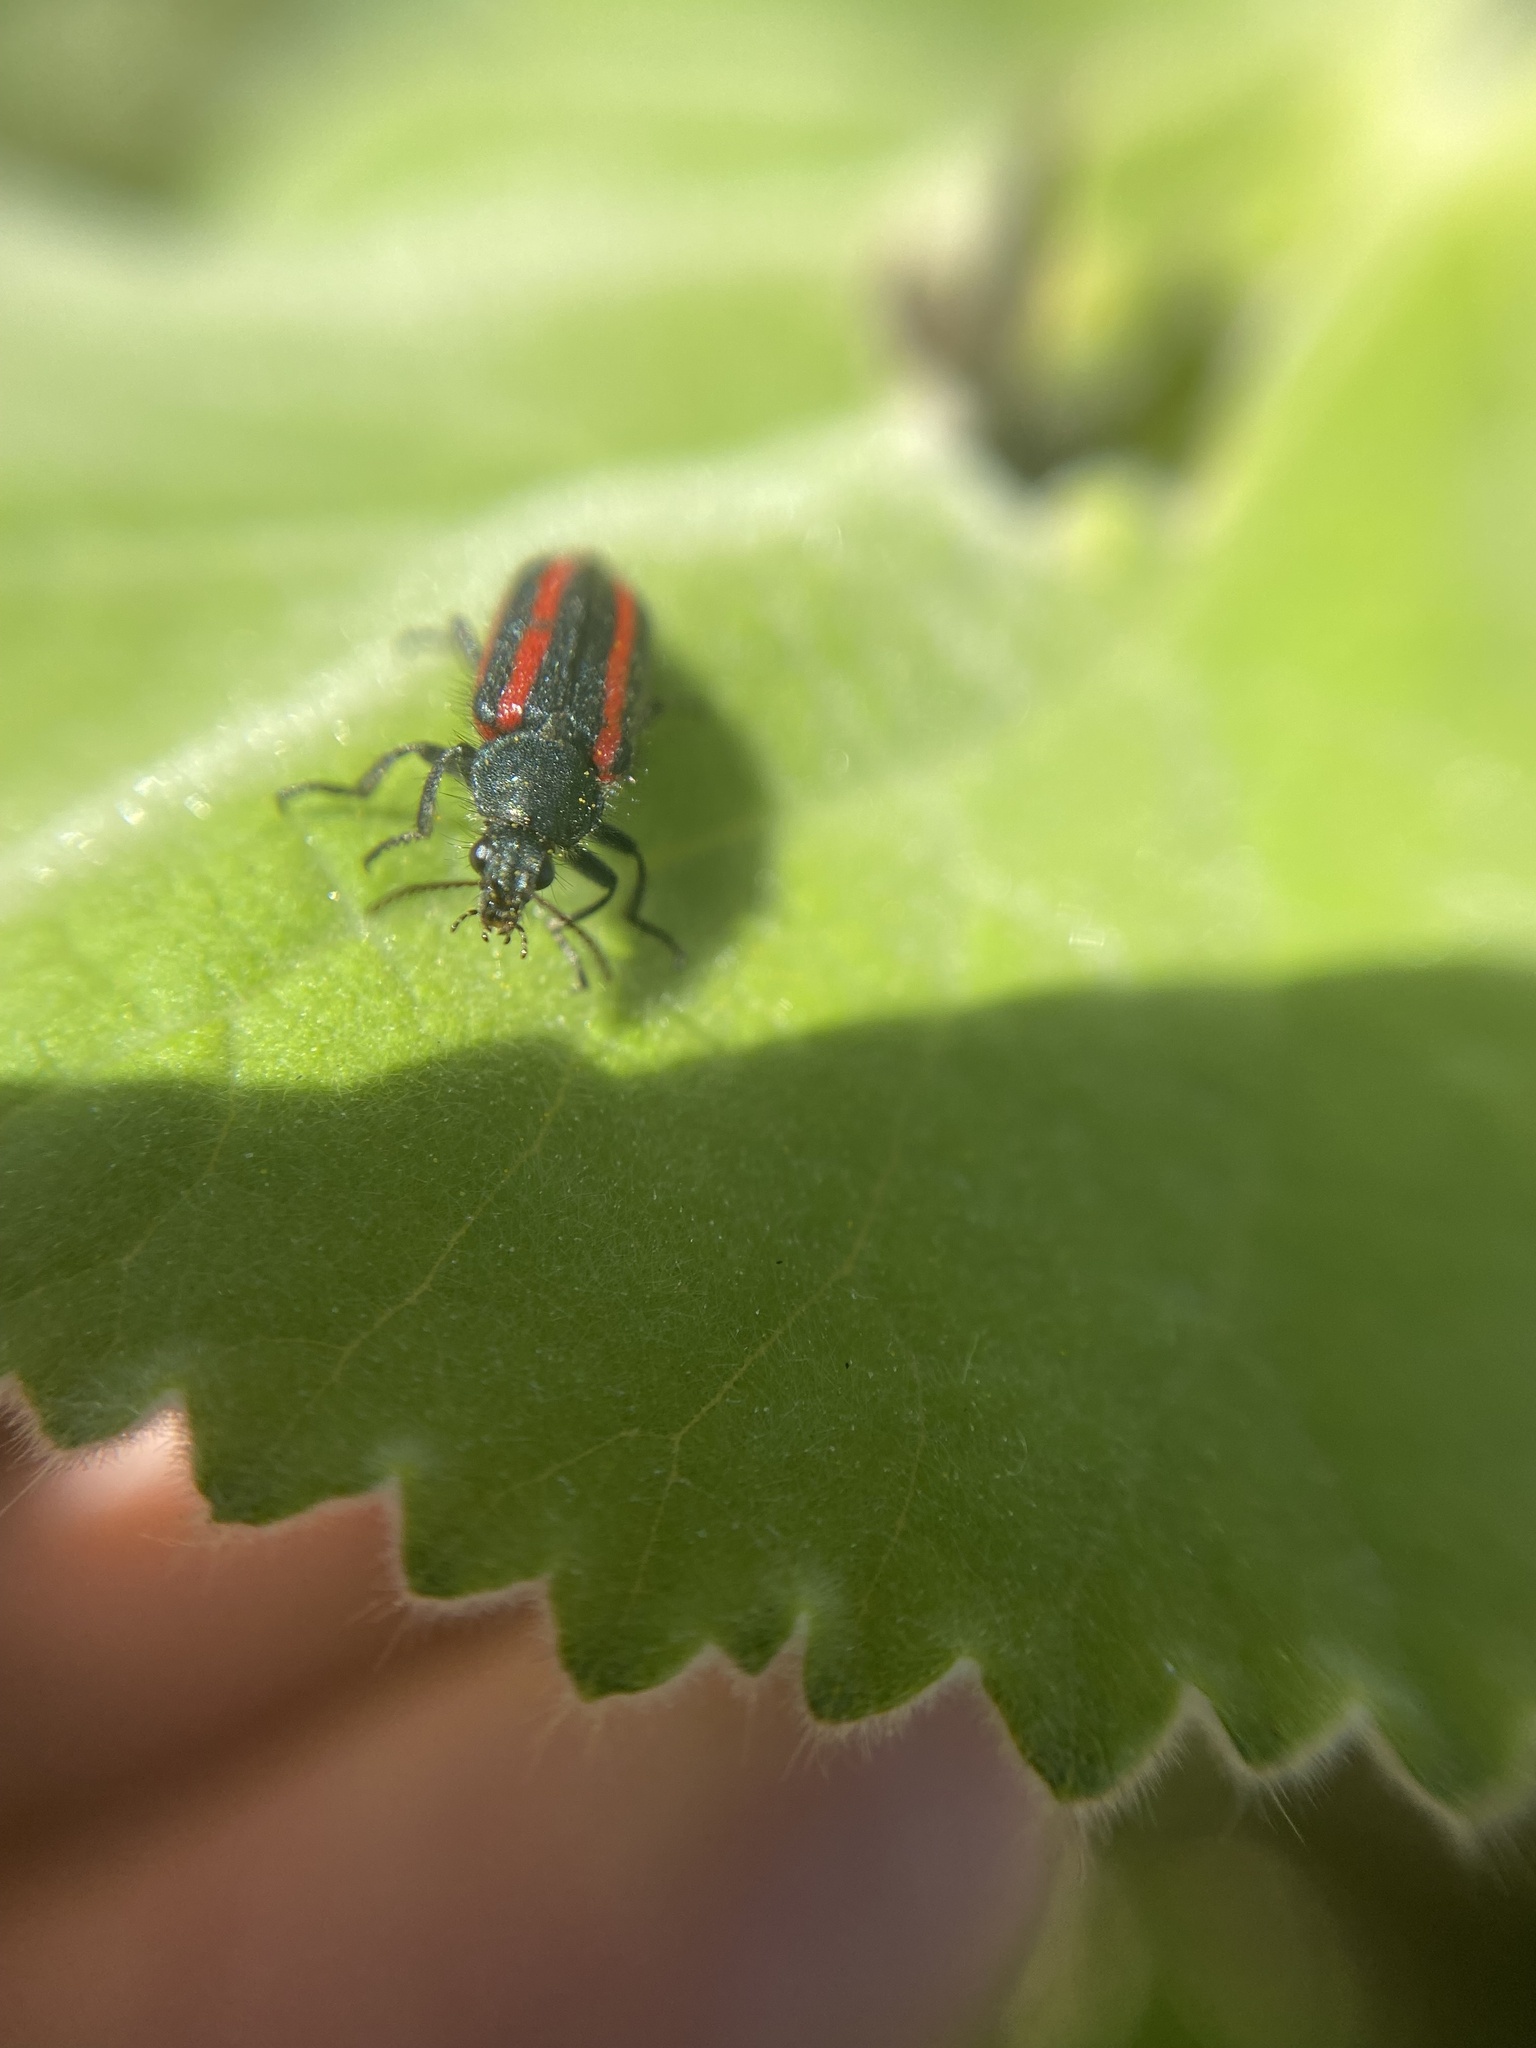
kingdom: Animalia
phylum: Arthropoda
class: Insecta
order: Coleoptera
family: Melyridae
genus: Astylus
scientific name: Astylus
